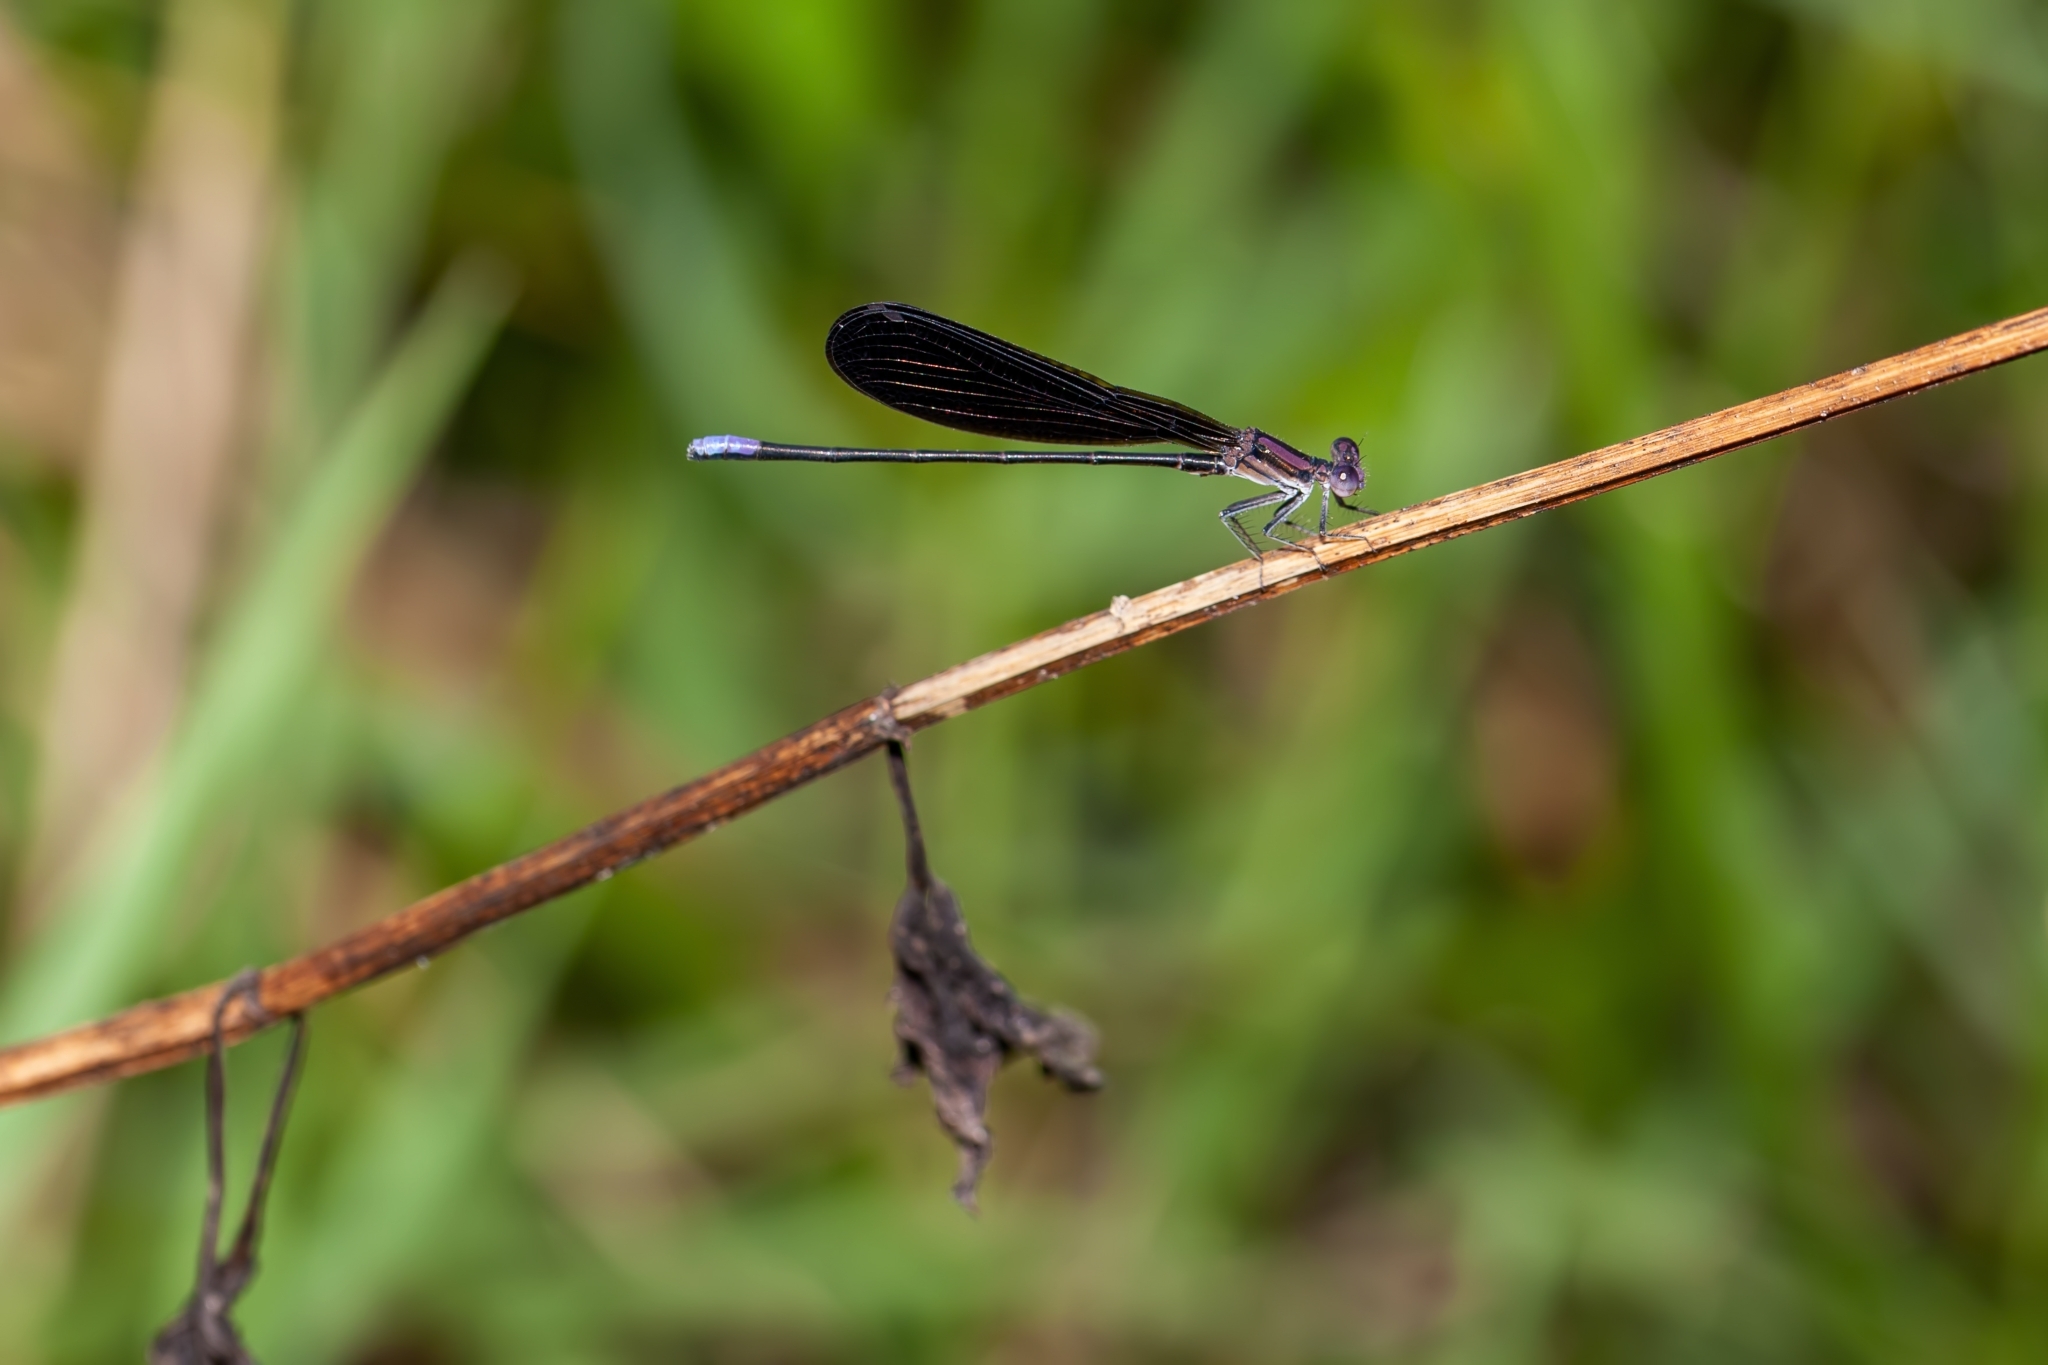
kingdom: Animalia
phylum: Arthropoda
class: Insecta
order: Odonata
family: Coenagrionidae
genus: Argia
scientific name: Argia fumipennis
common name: Variable dancer
